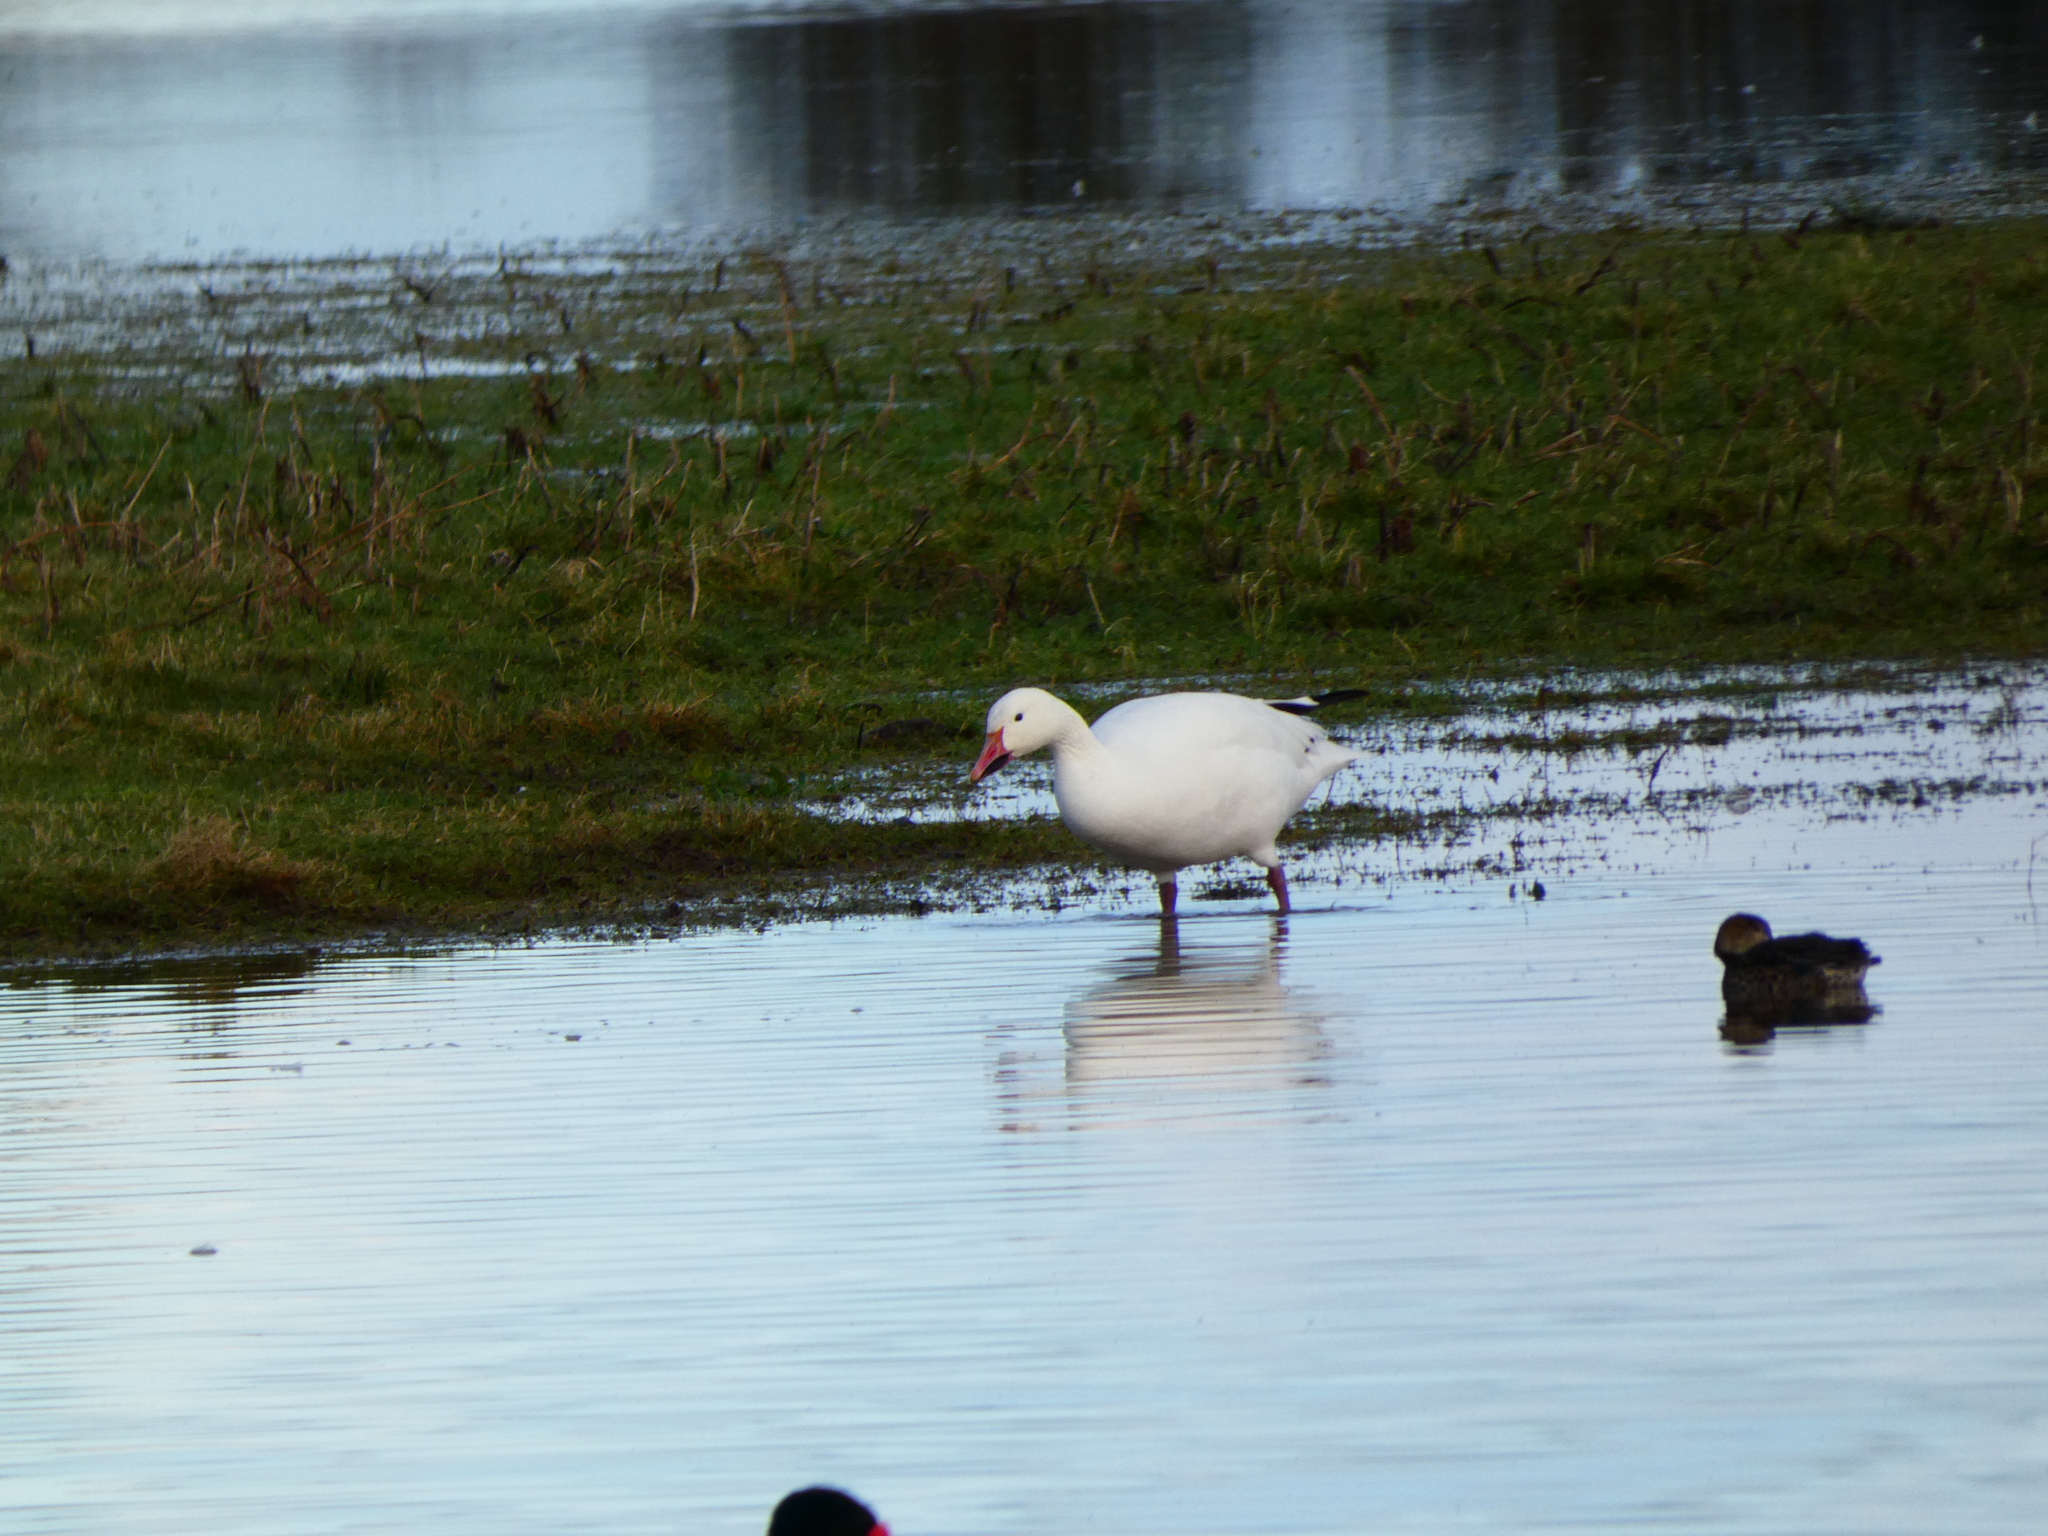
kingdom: Animalia
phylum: Chordata
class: Aves
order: Anseriformes
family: Anatidae
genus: Anser
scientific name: Anser caerulescens
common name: Snow goose
